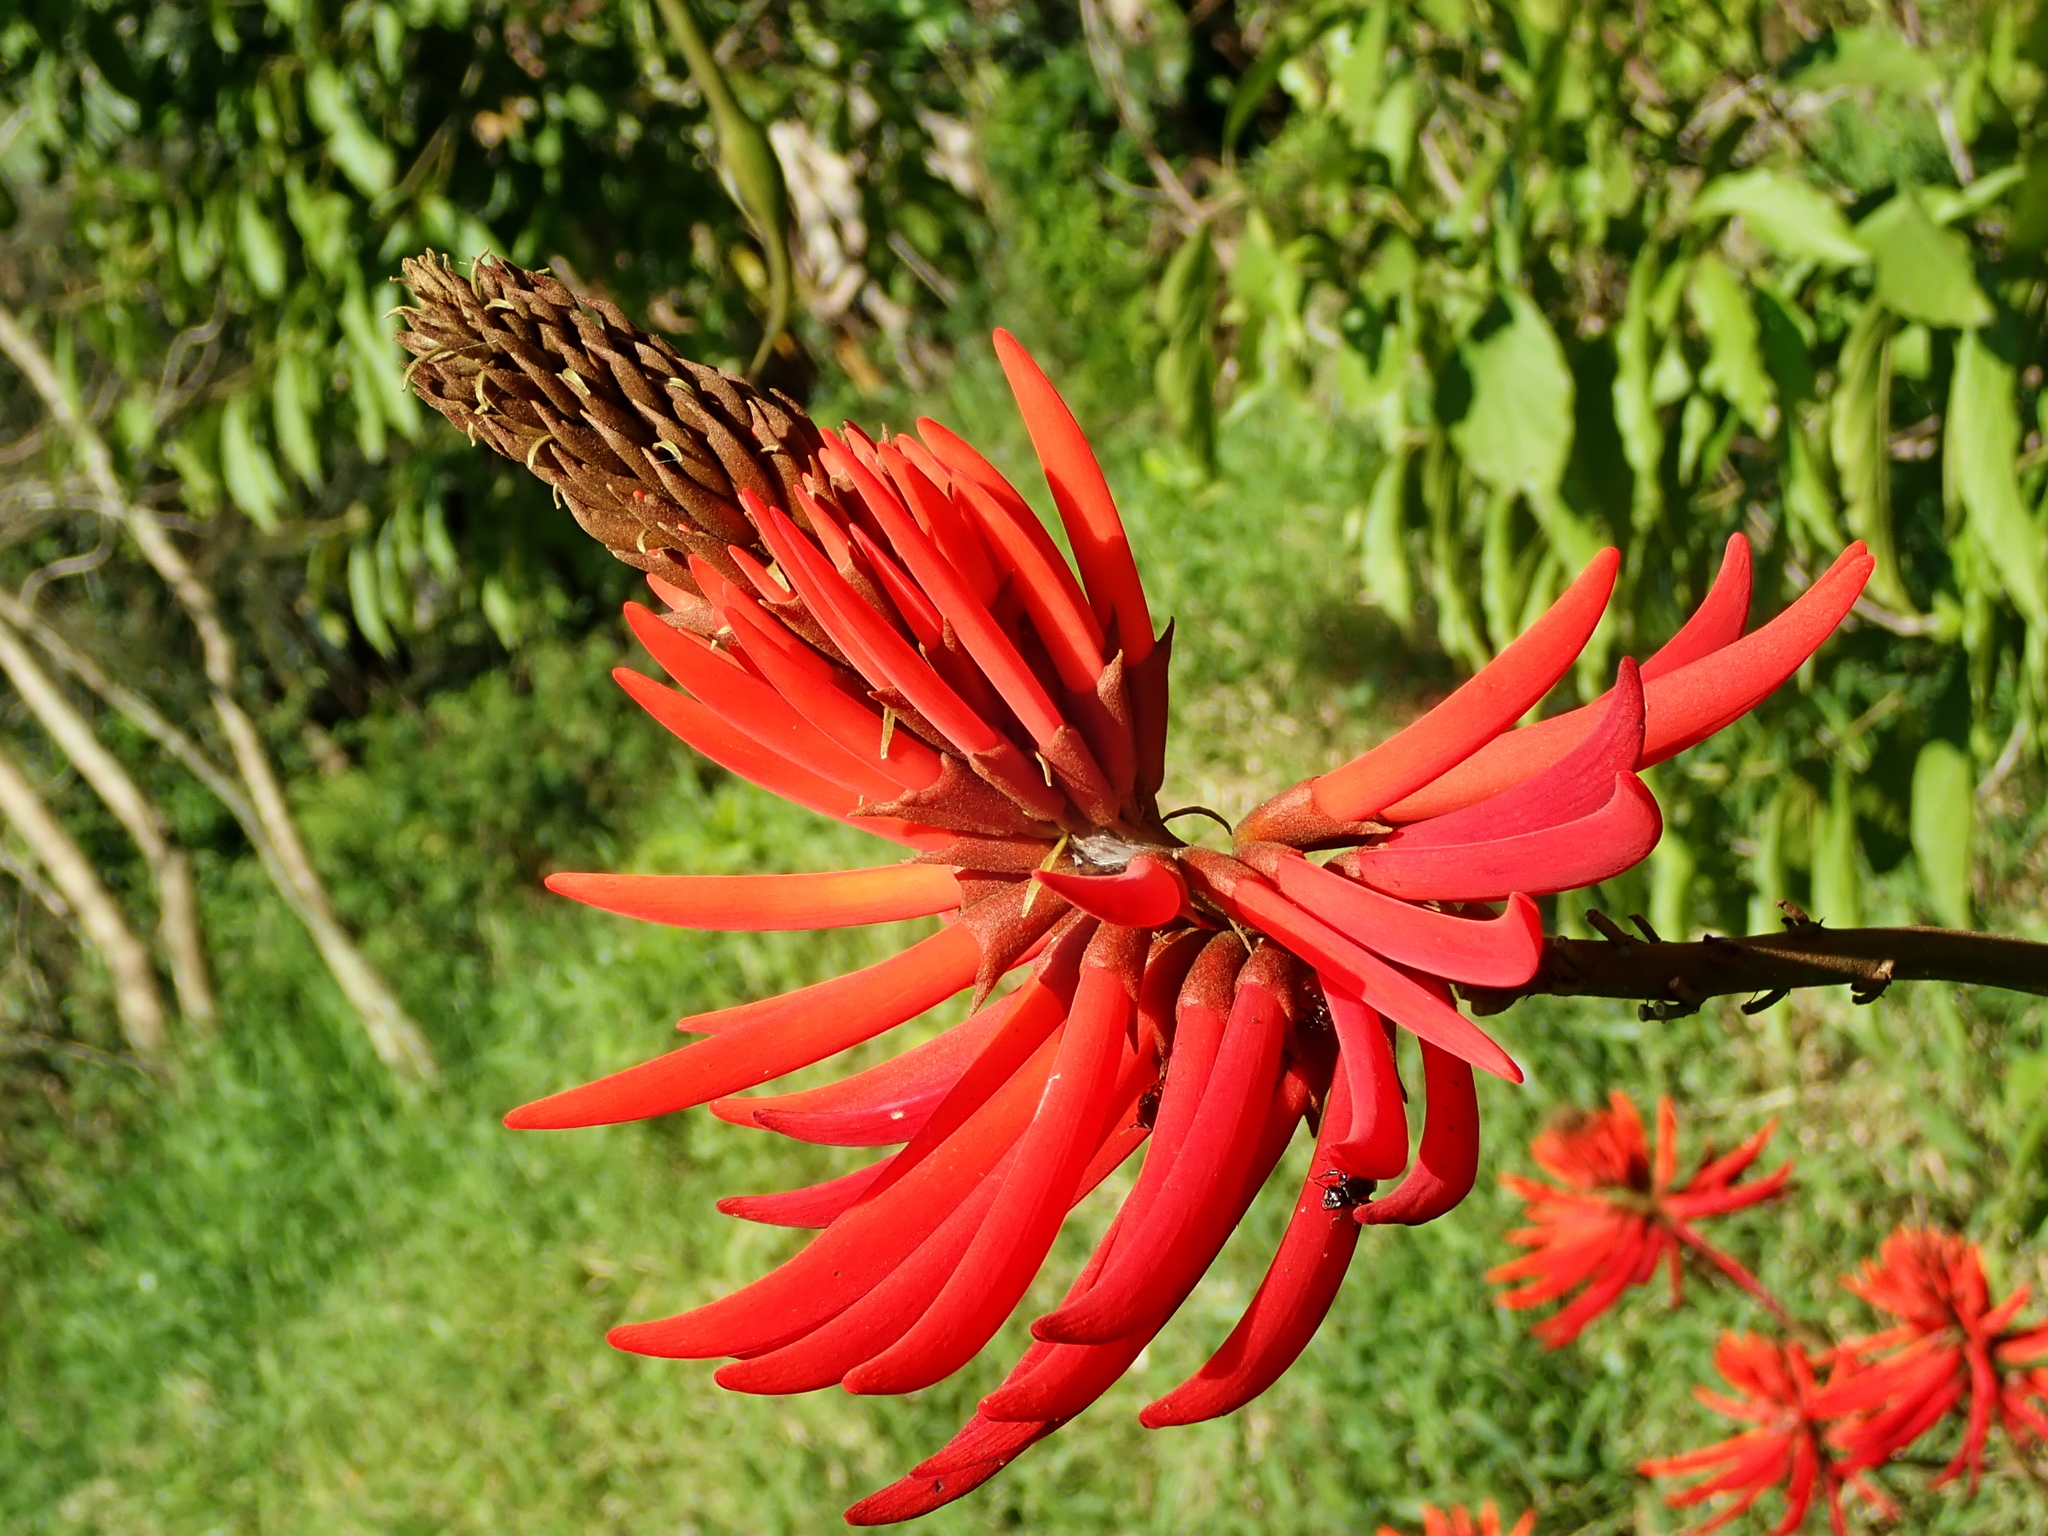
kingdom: Plantae
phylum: Tracheophyta
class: Magnoliopsida
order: Fabales
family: Fabaceae
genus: Erythrina
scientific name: Erythrina speciosa
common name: Coral tree
